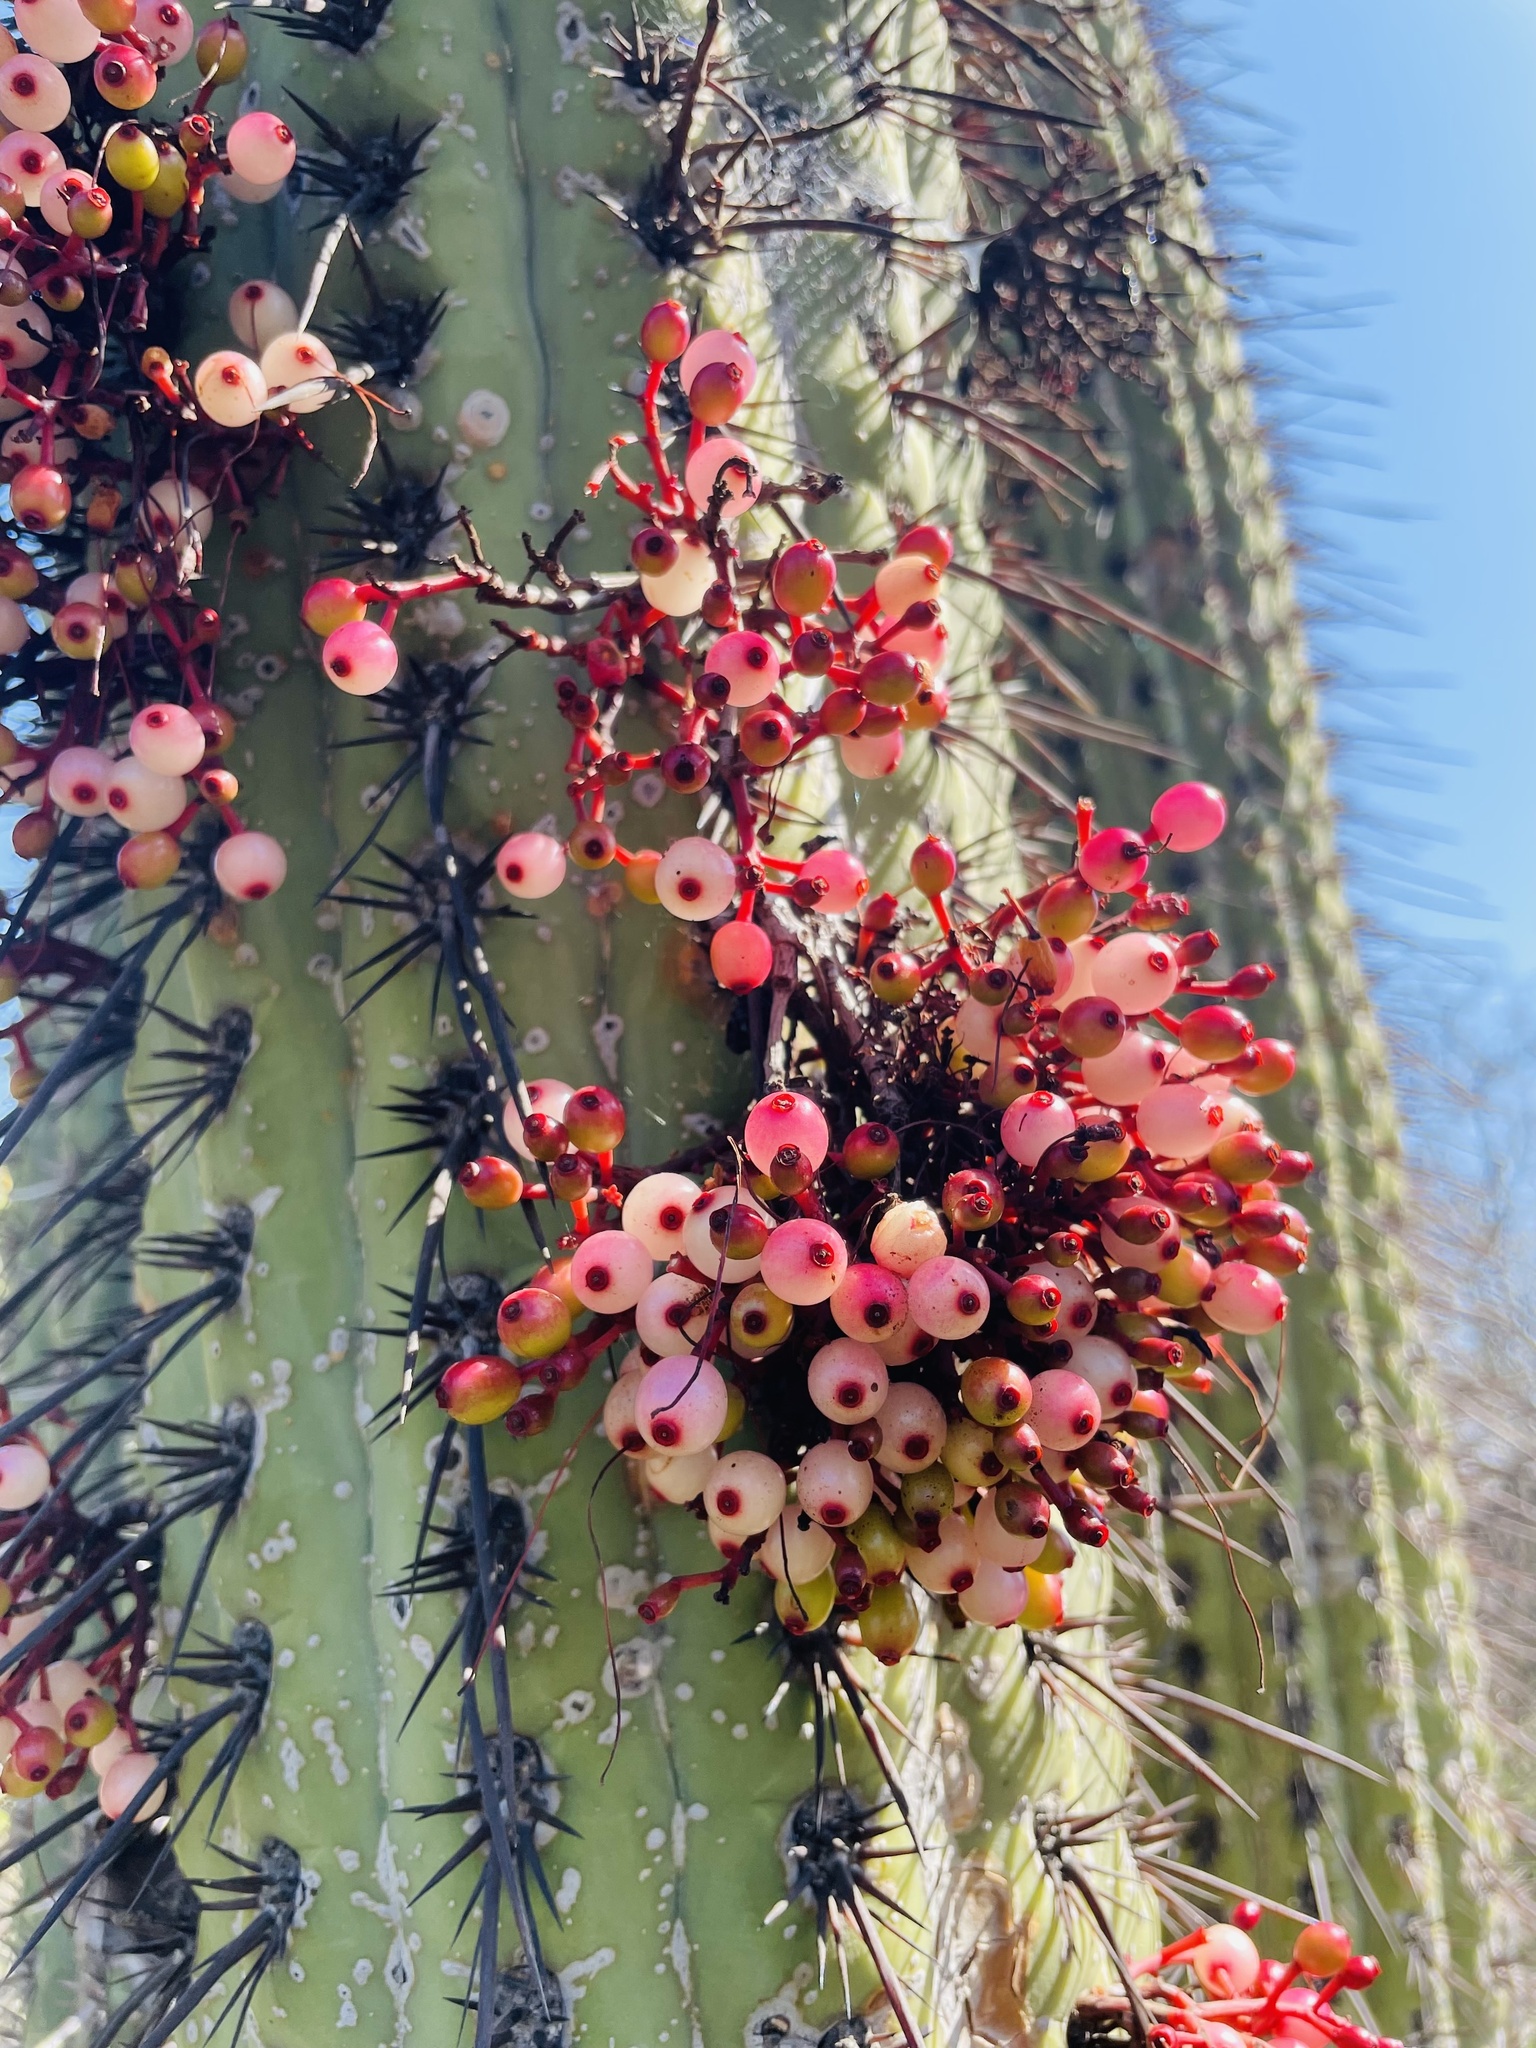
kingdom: Plantae
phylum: Tracheophyta
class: Magnoliopsida
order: Santalales
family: Loranthaceae
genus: Tristerix
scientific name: Tristerix aphyllus
